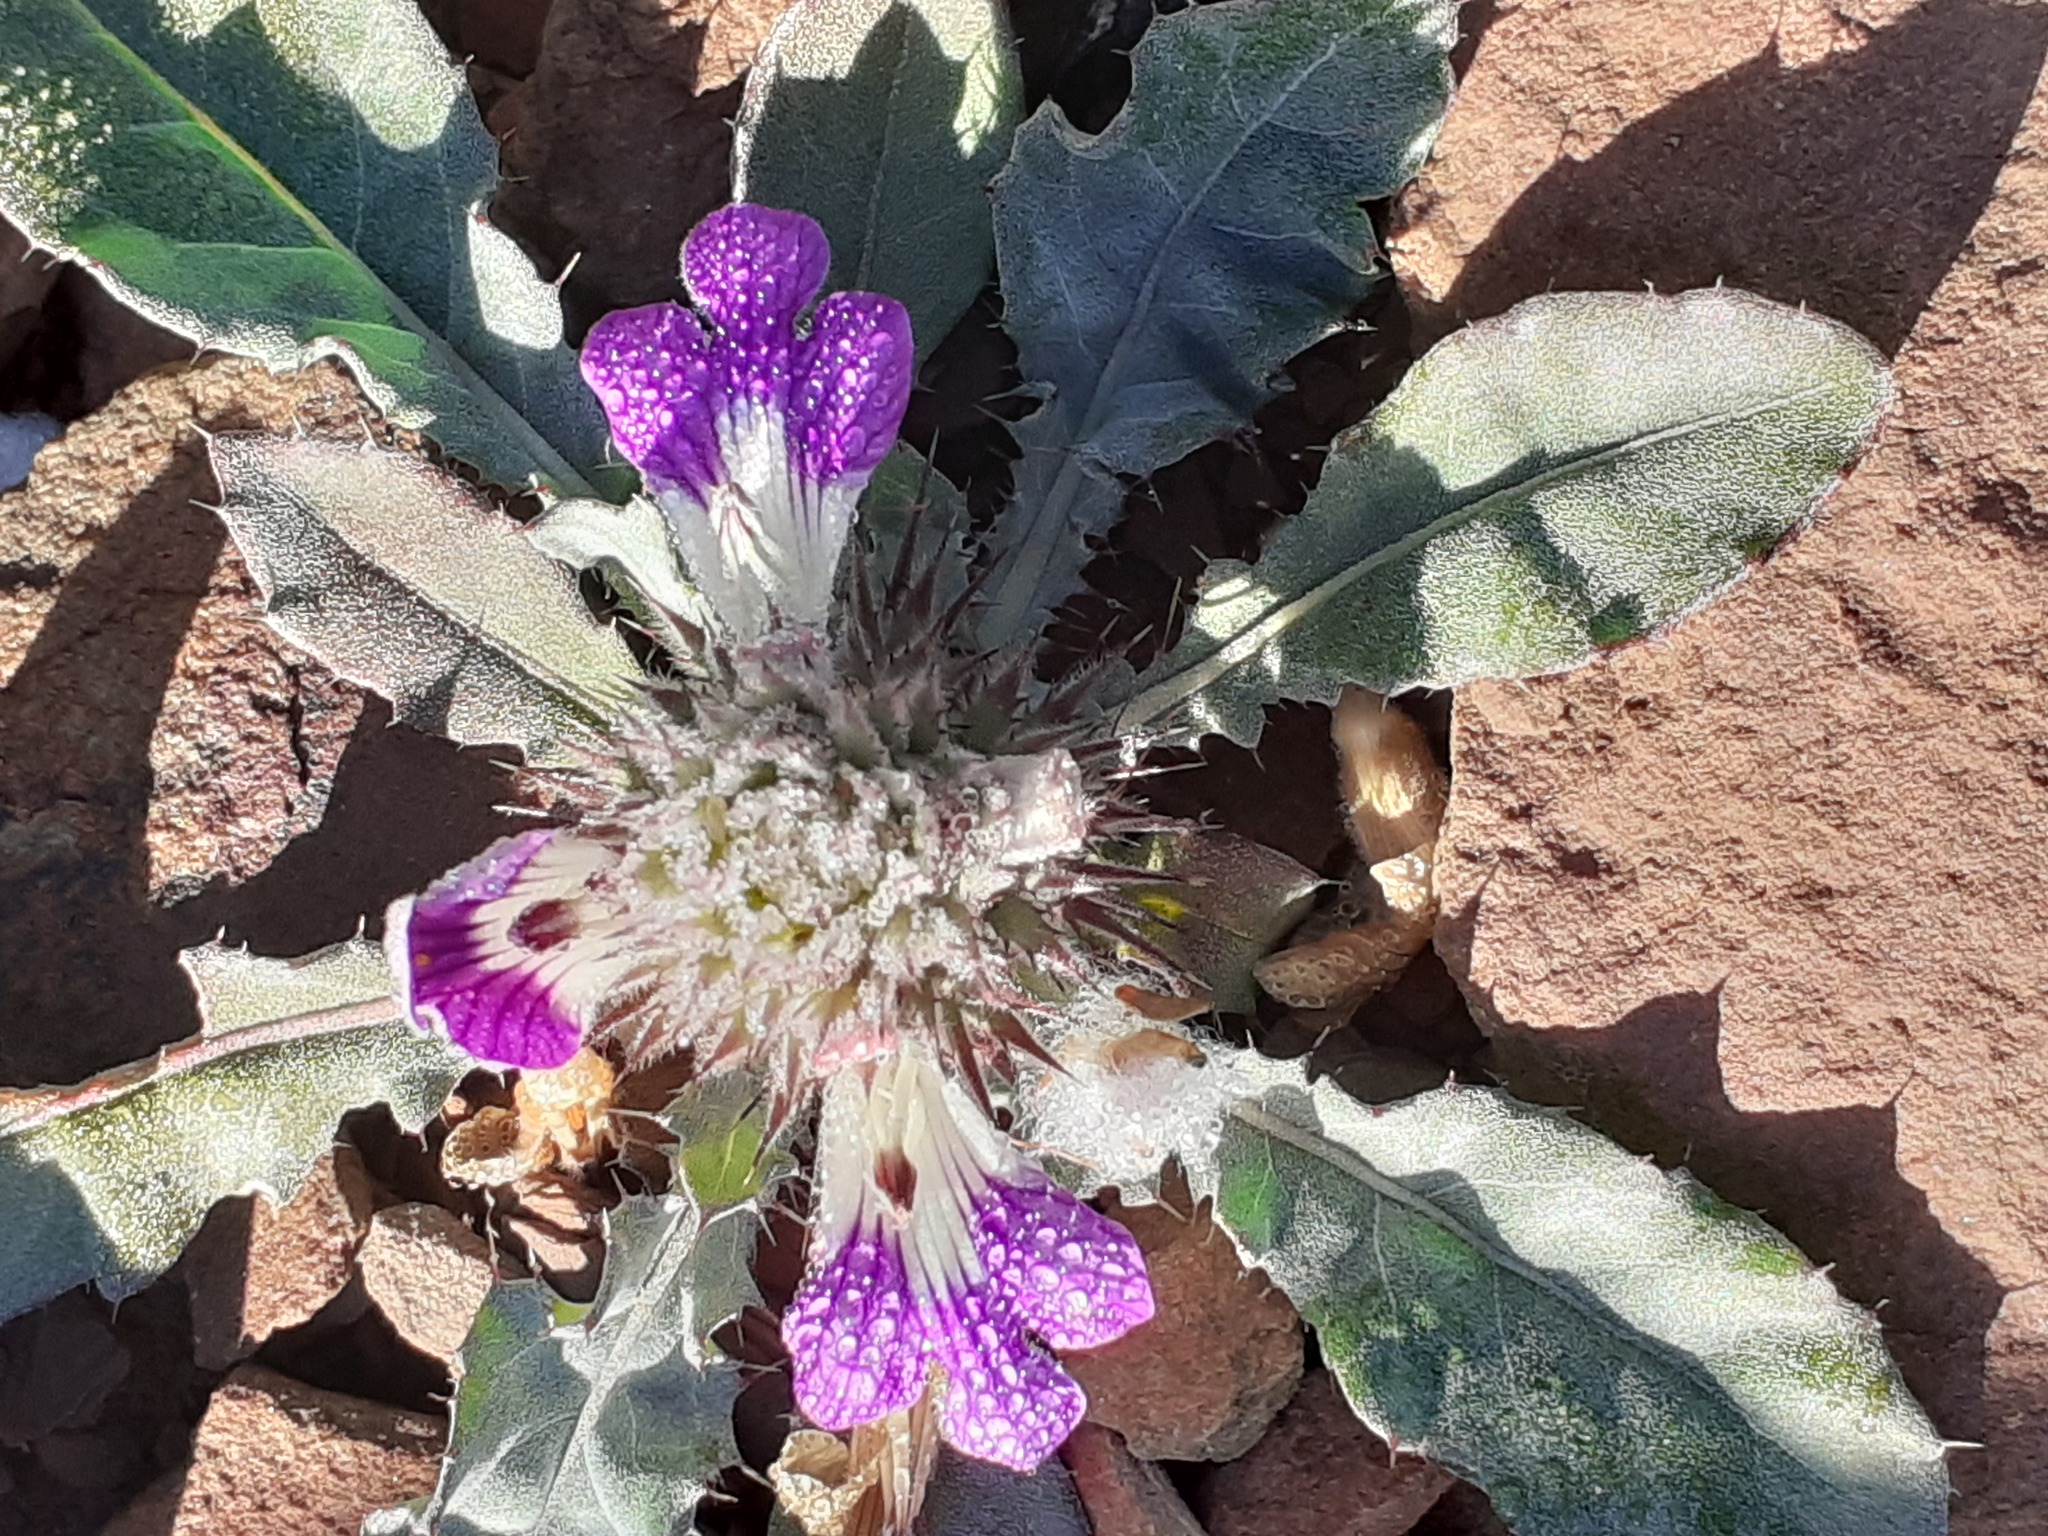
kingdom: Plantae
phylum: Tracheophyta
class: Magnoliopsida
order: Lamiales
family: Acanthaceae
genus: Acanthopsis
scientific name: Acanthopsis dispermoides
